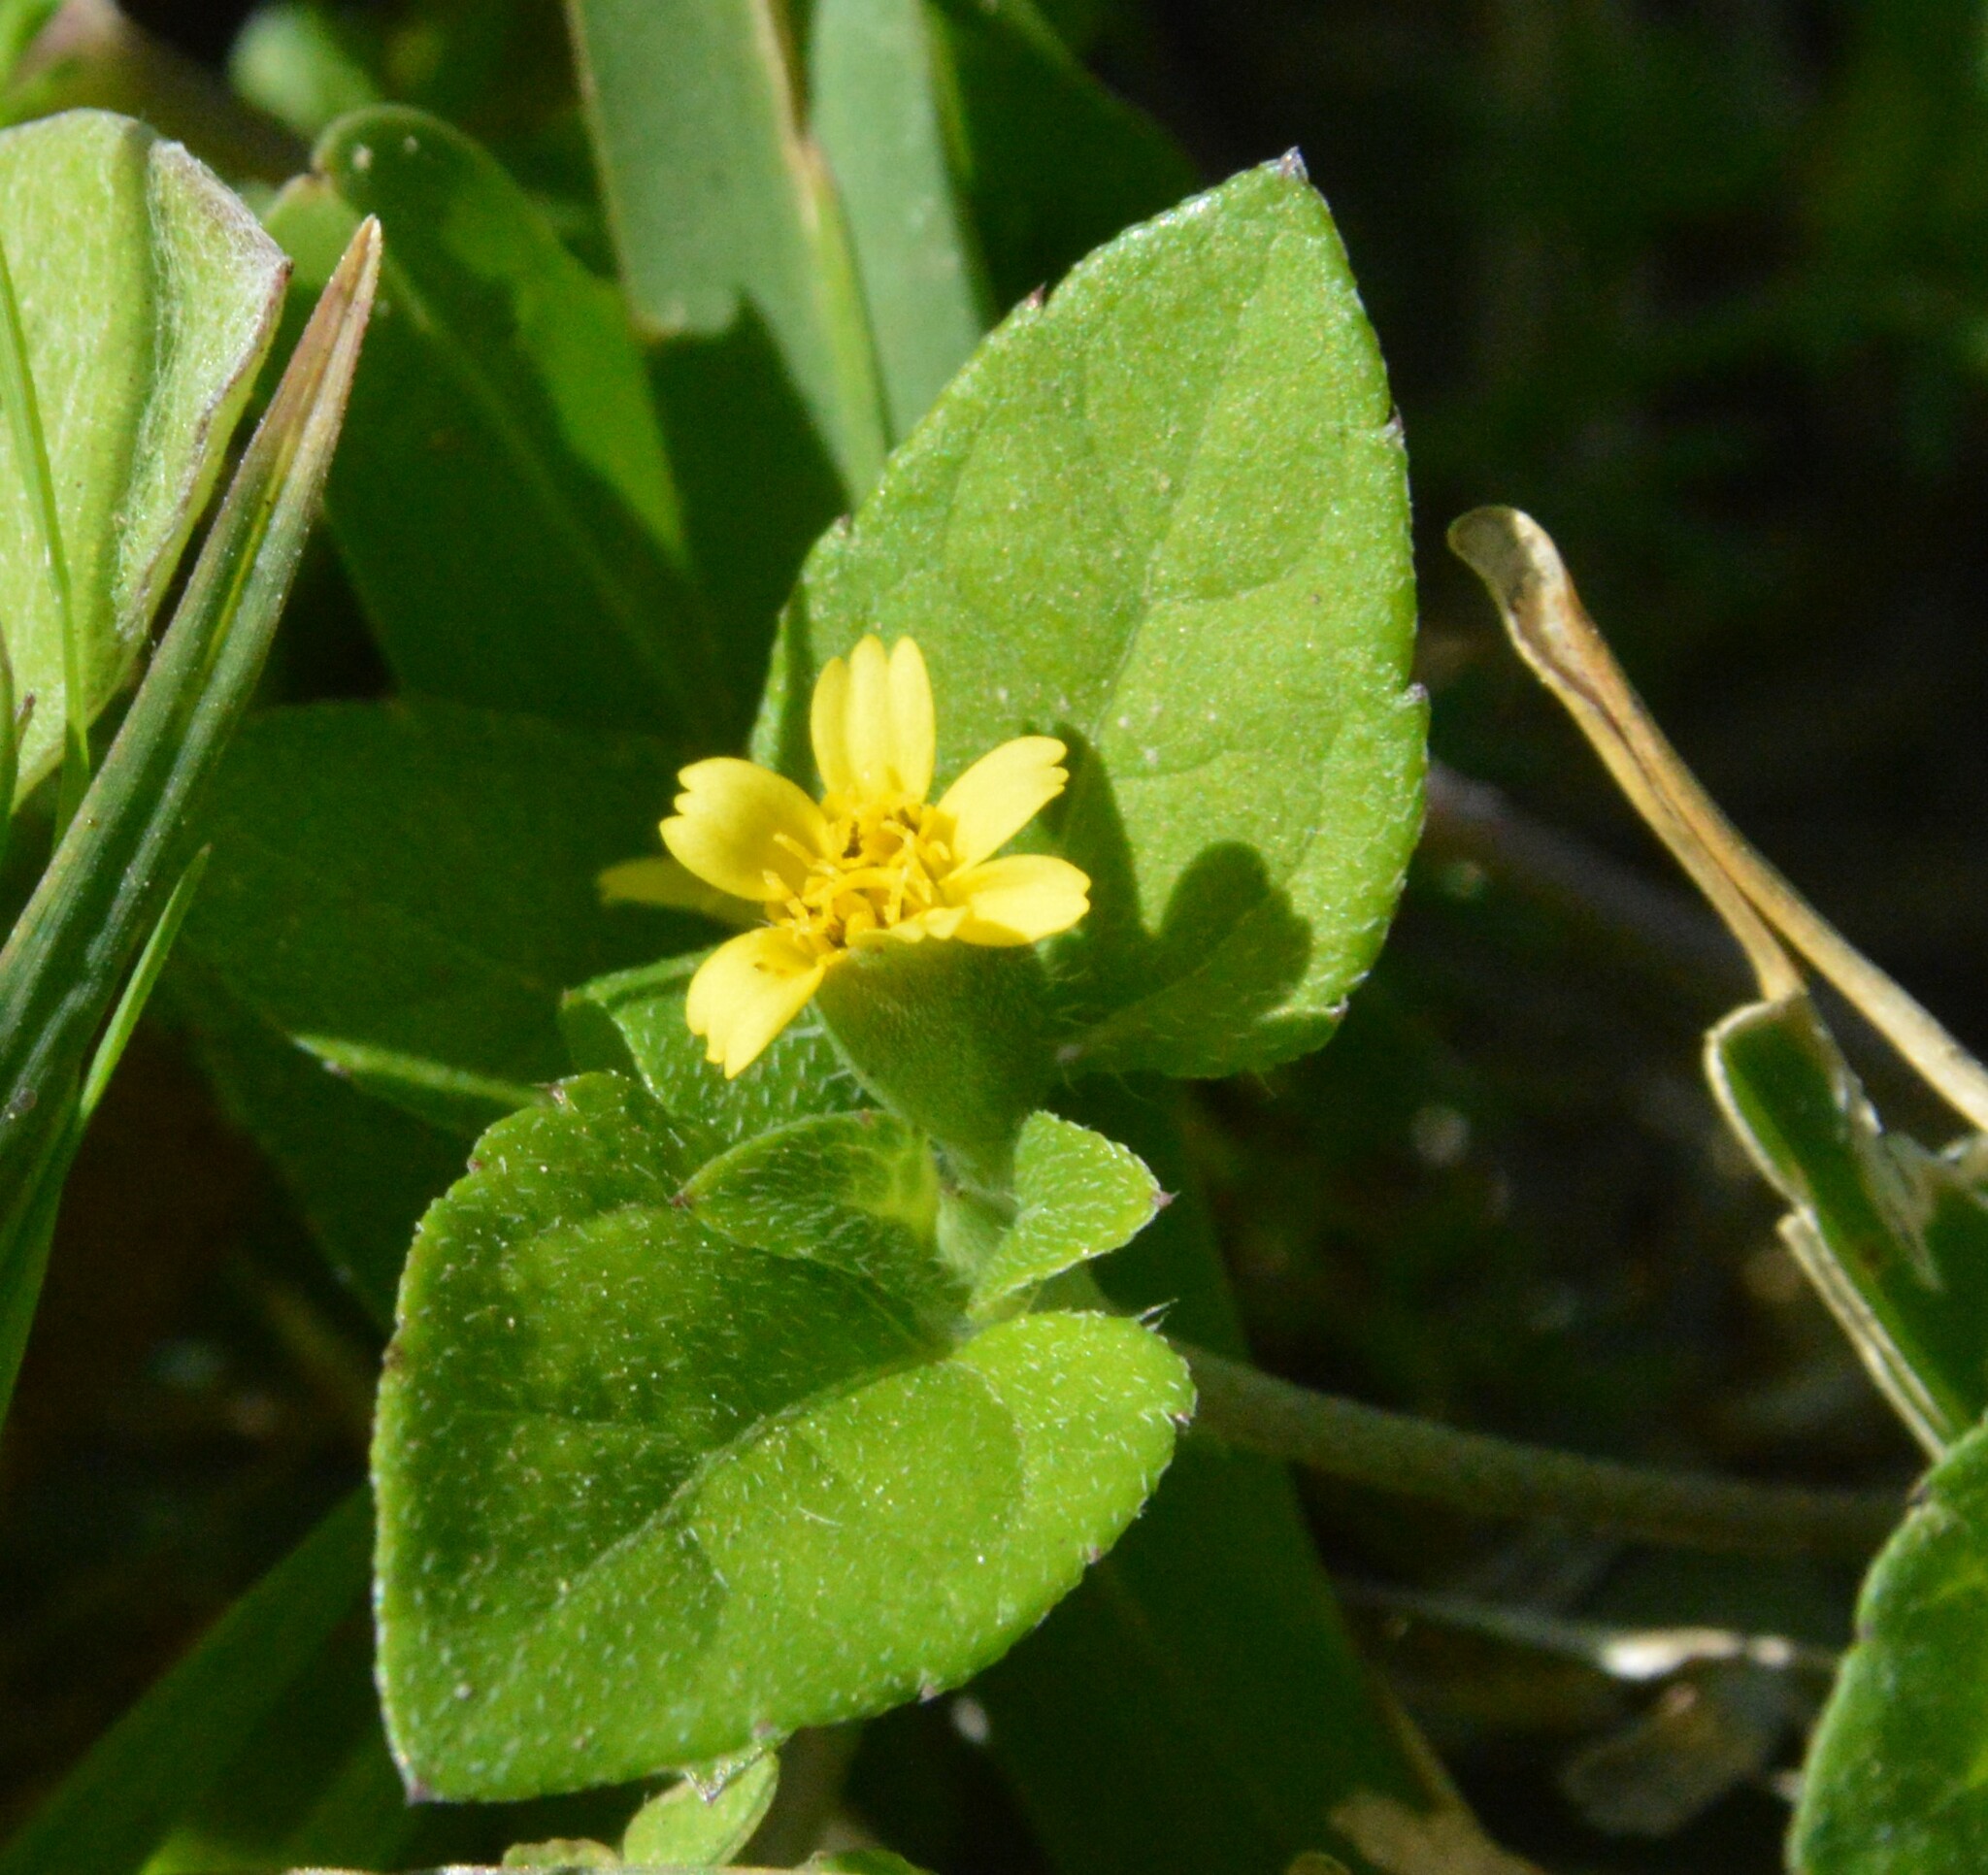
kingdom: Plantae
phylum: Tracheophyta
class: Magnoliopsida
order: Asterales
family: Asteraceae
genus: Calyptocarpus
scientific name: Calyptocarpus vialis
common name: Straggler daisy
